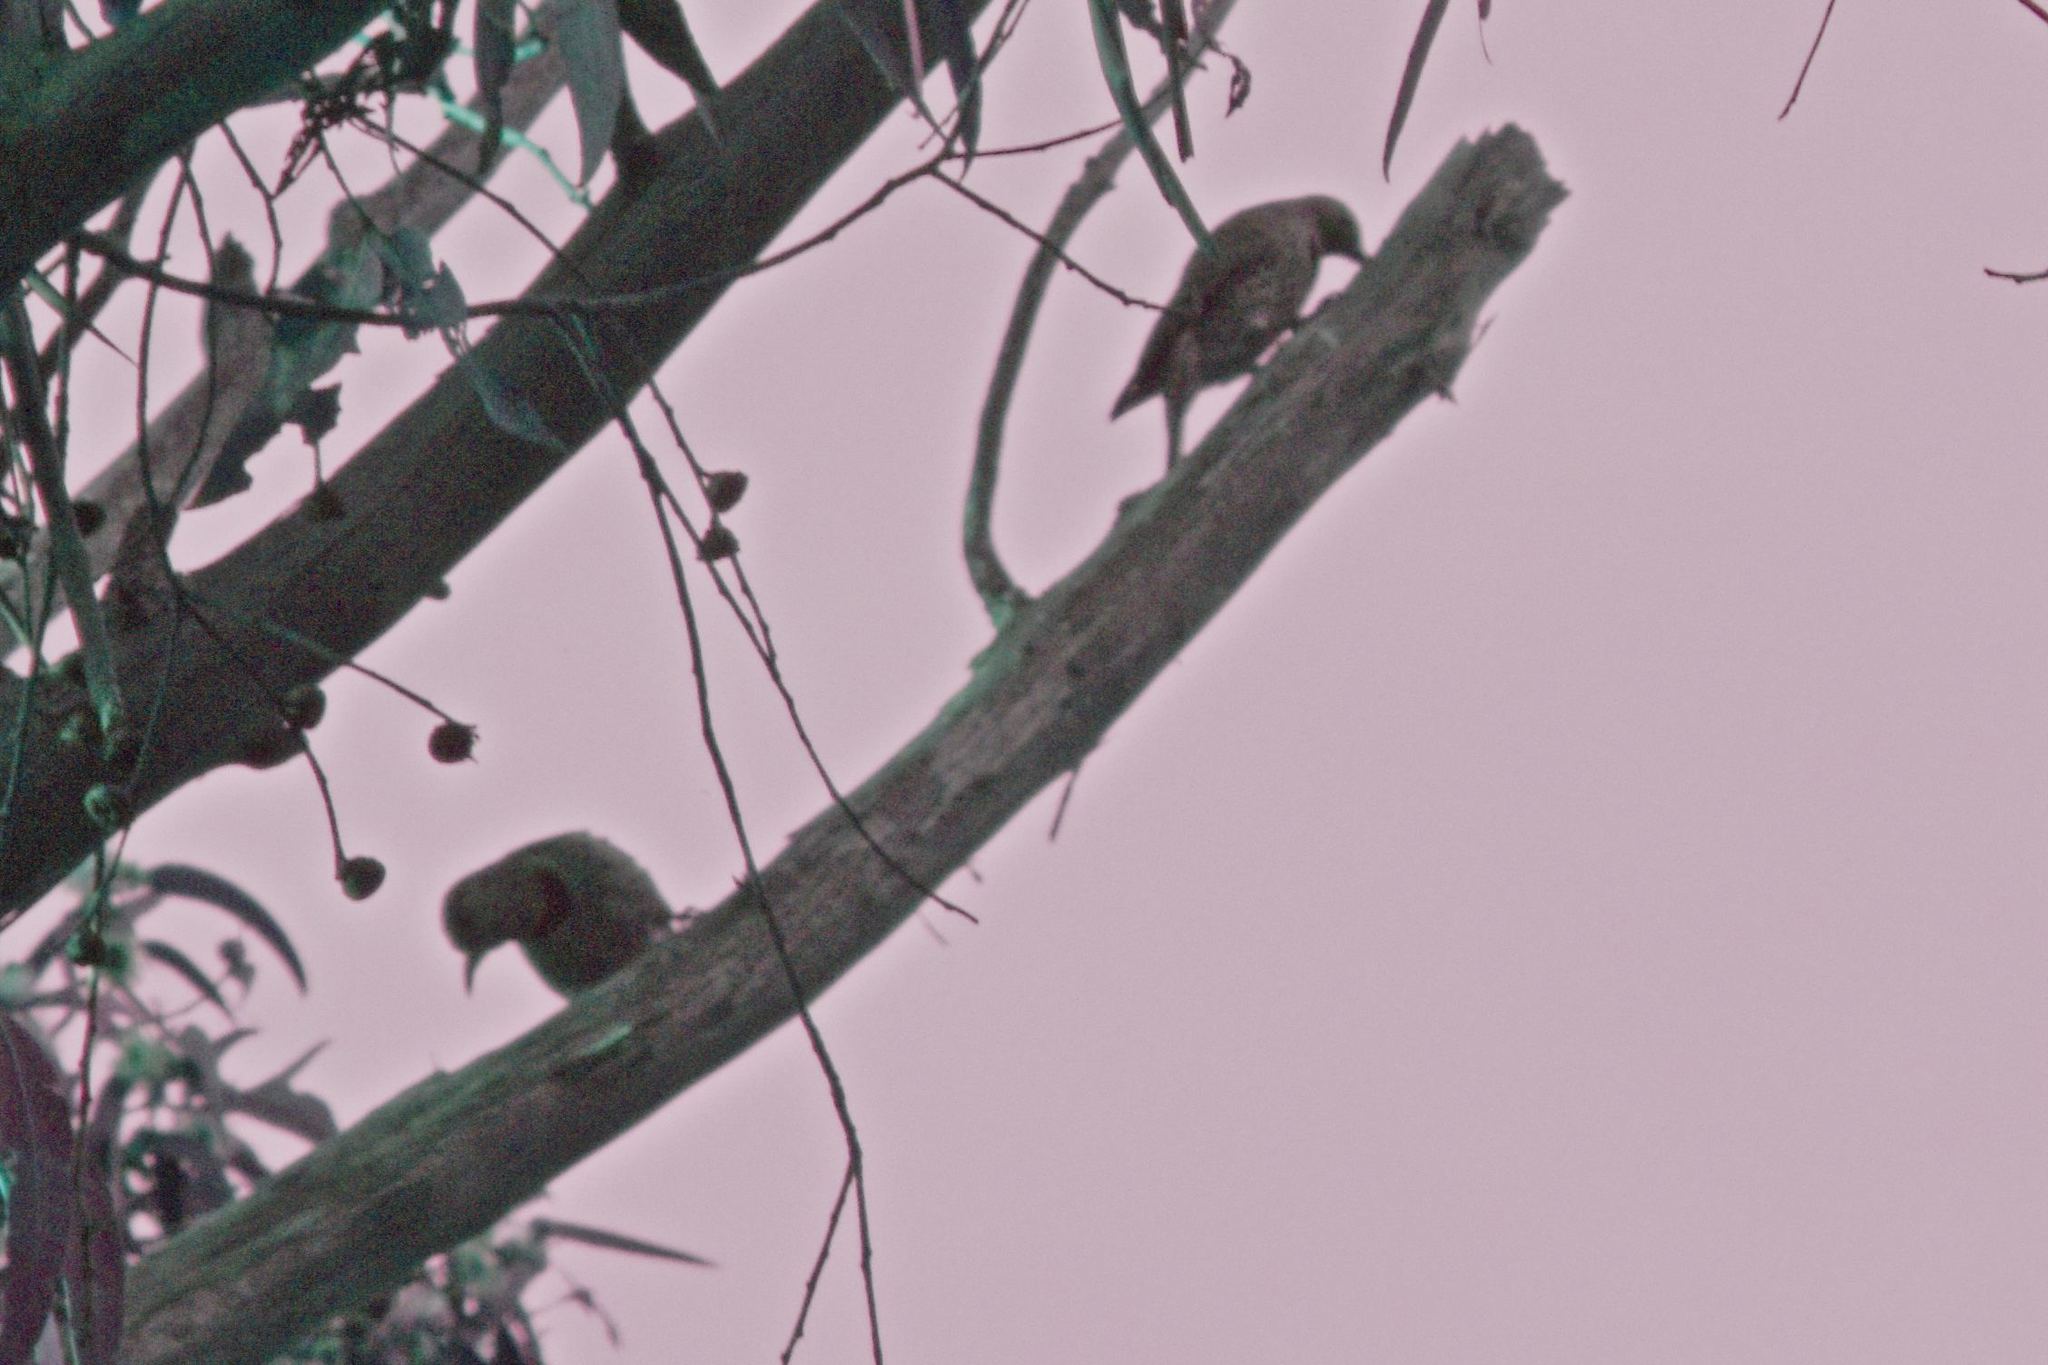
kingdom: Animalia
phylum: Chordata
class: Aves
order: Piciformes
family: Picidae
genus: Colaptes
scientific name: Colaptes auratus
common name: Northern flicker
